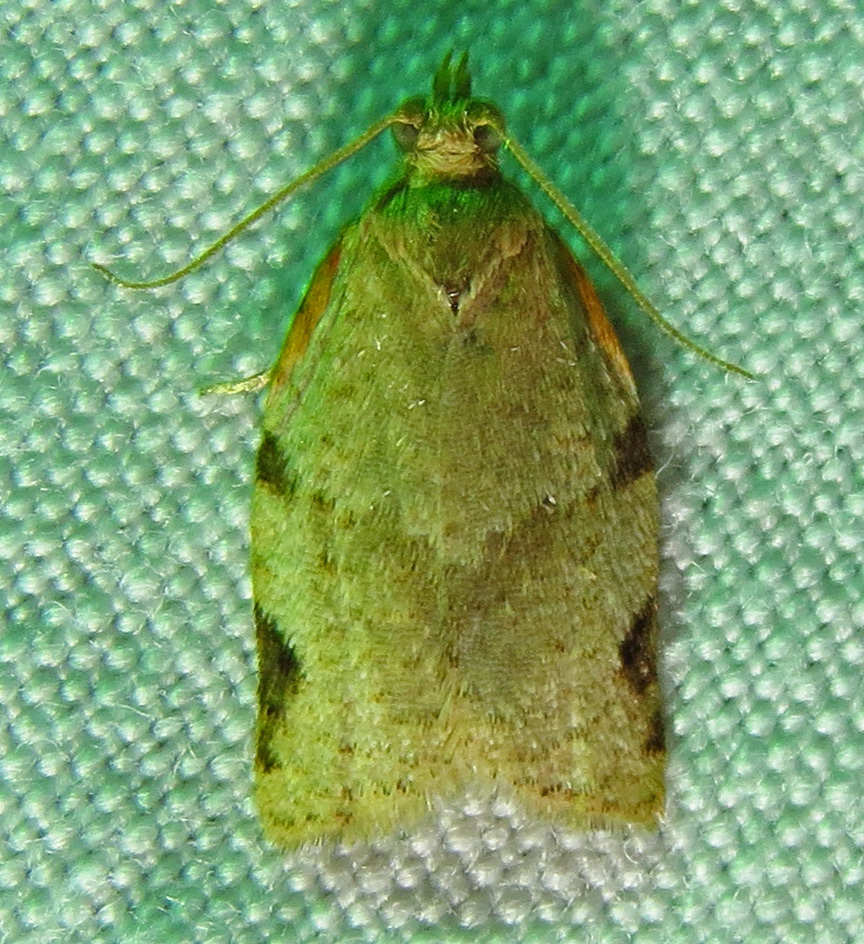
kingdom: Animalia
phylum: Arthropoda
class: Insecta
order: Lepidoptera
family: Tortricidae
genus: Clepsis
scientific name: Clepsis virescana
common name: Greenish apple moth
